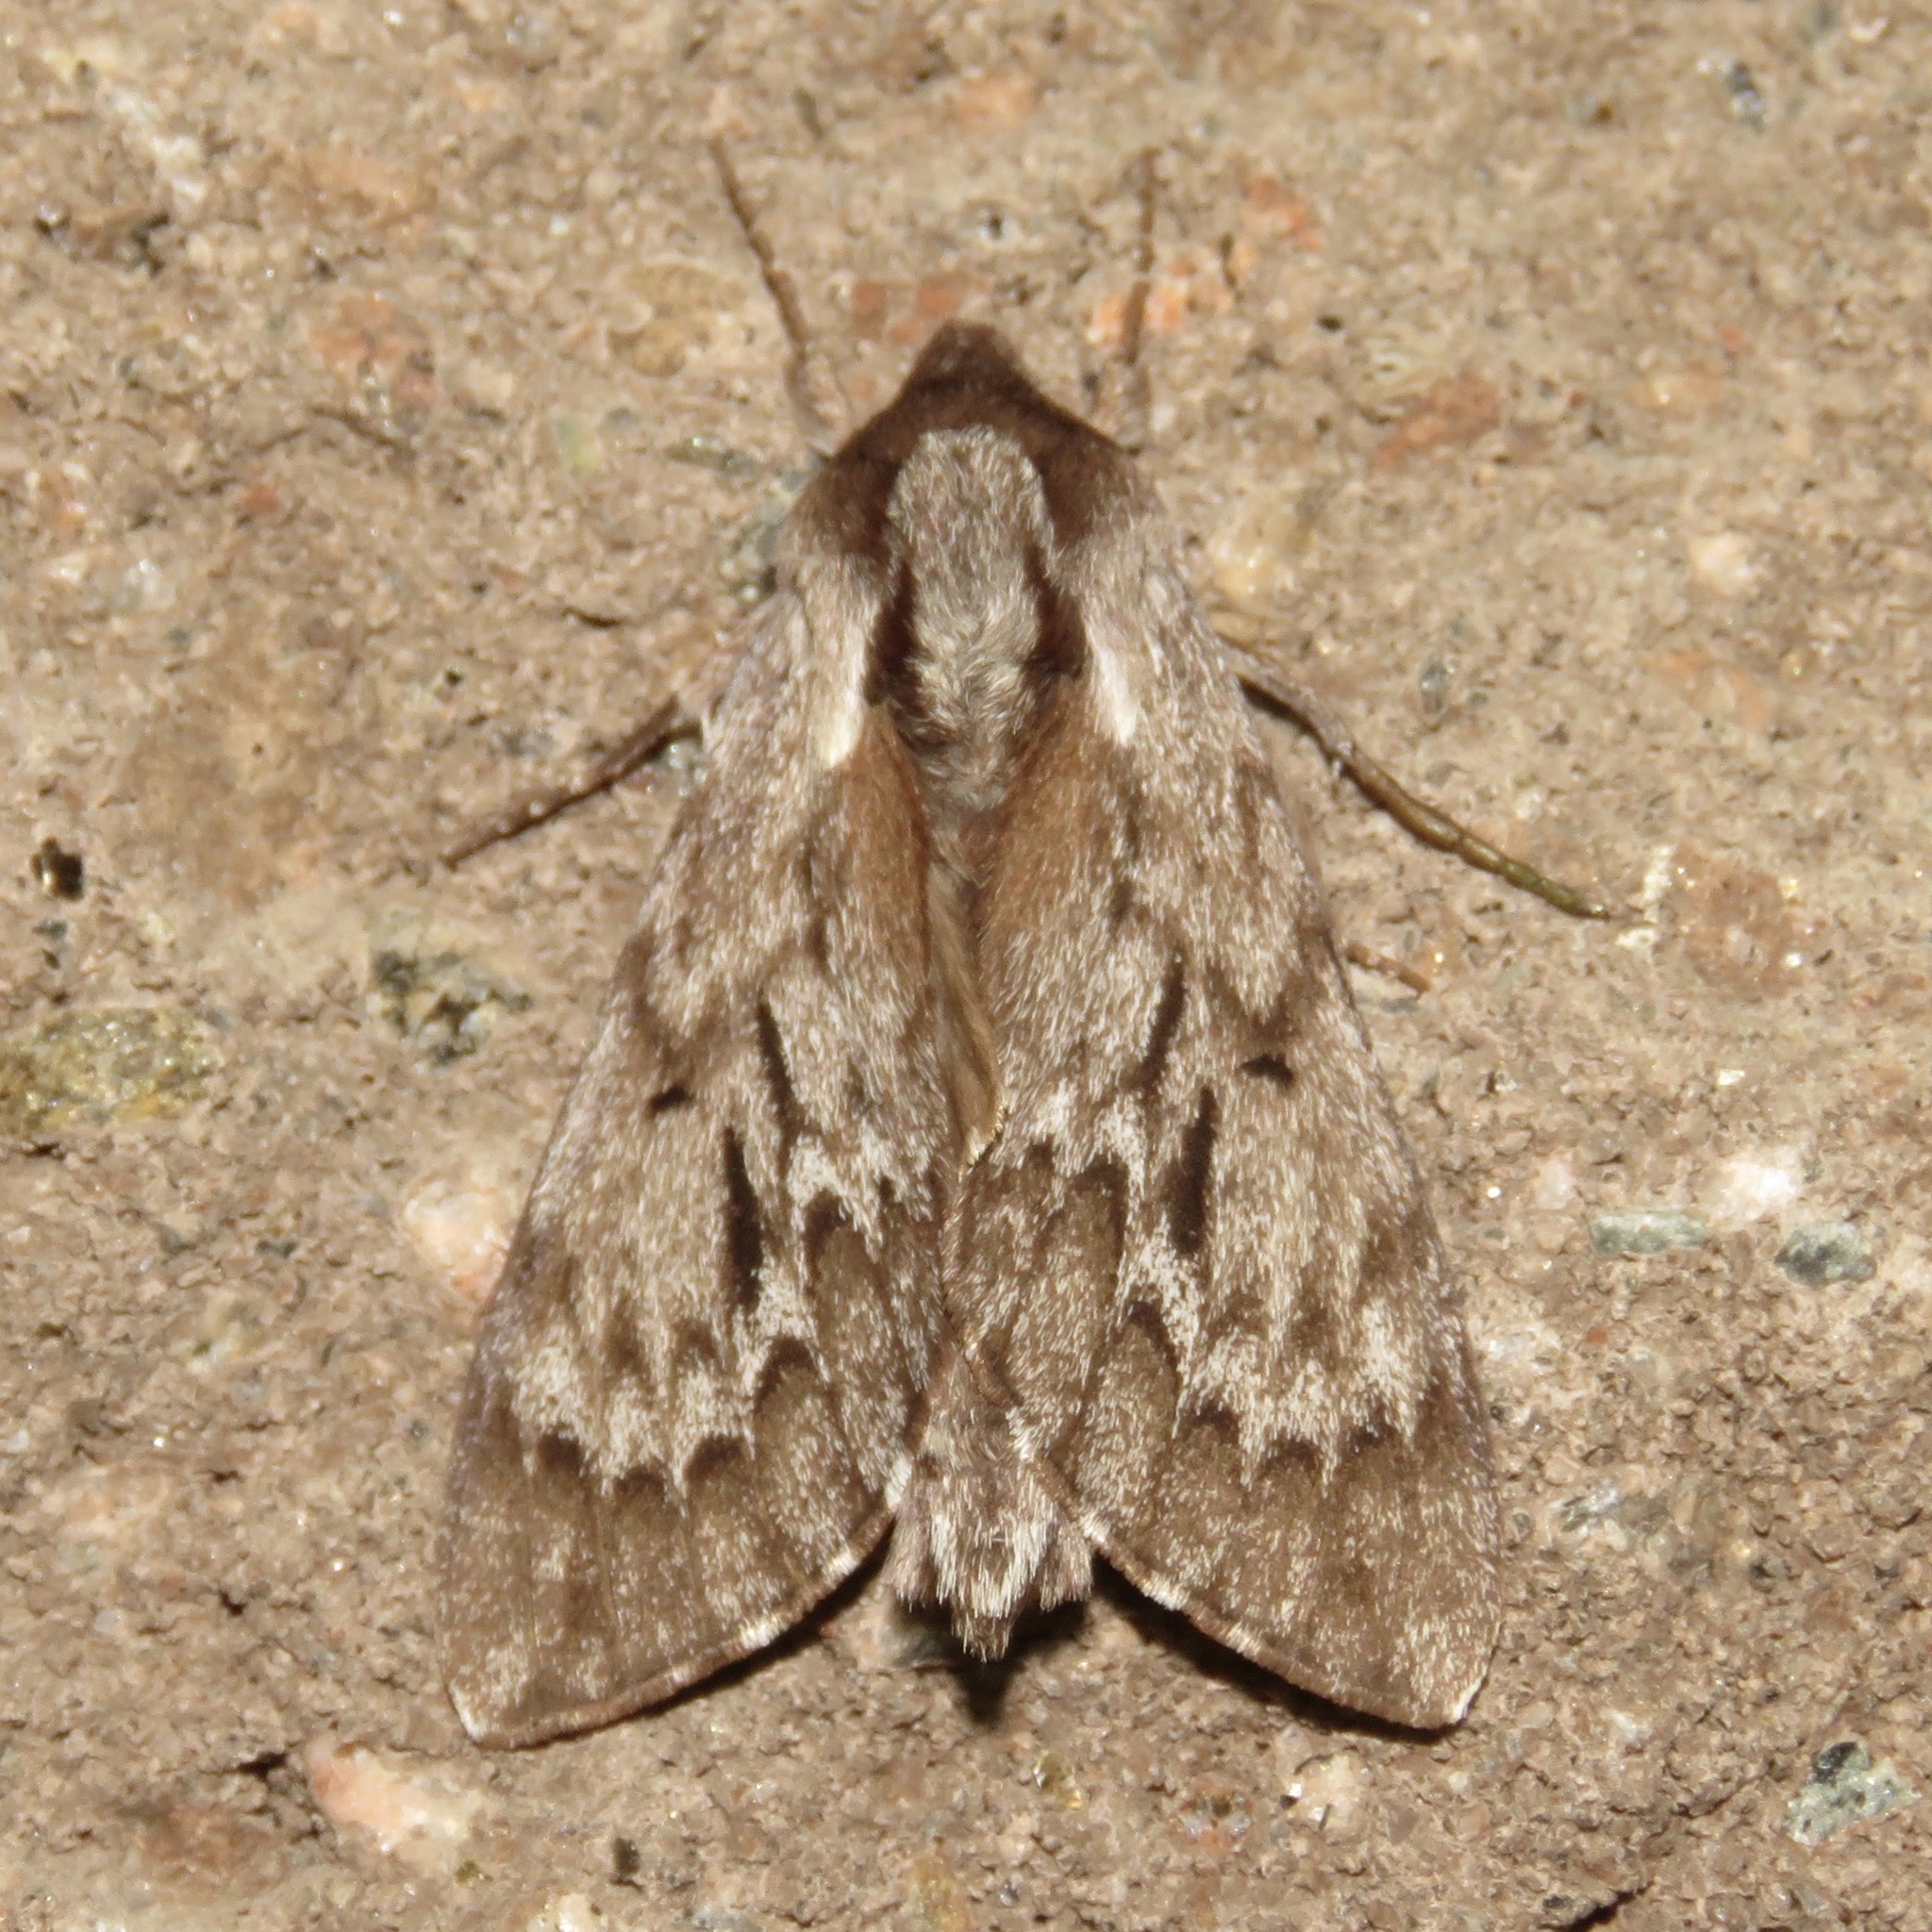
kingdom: Animalia
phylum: Arthropoda
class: Insecta
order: Lepidoptera
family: Sphingidae
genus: Lapara
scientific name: Lapara bombycoides
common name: Northern pine sphinx
